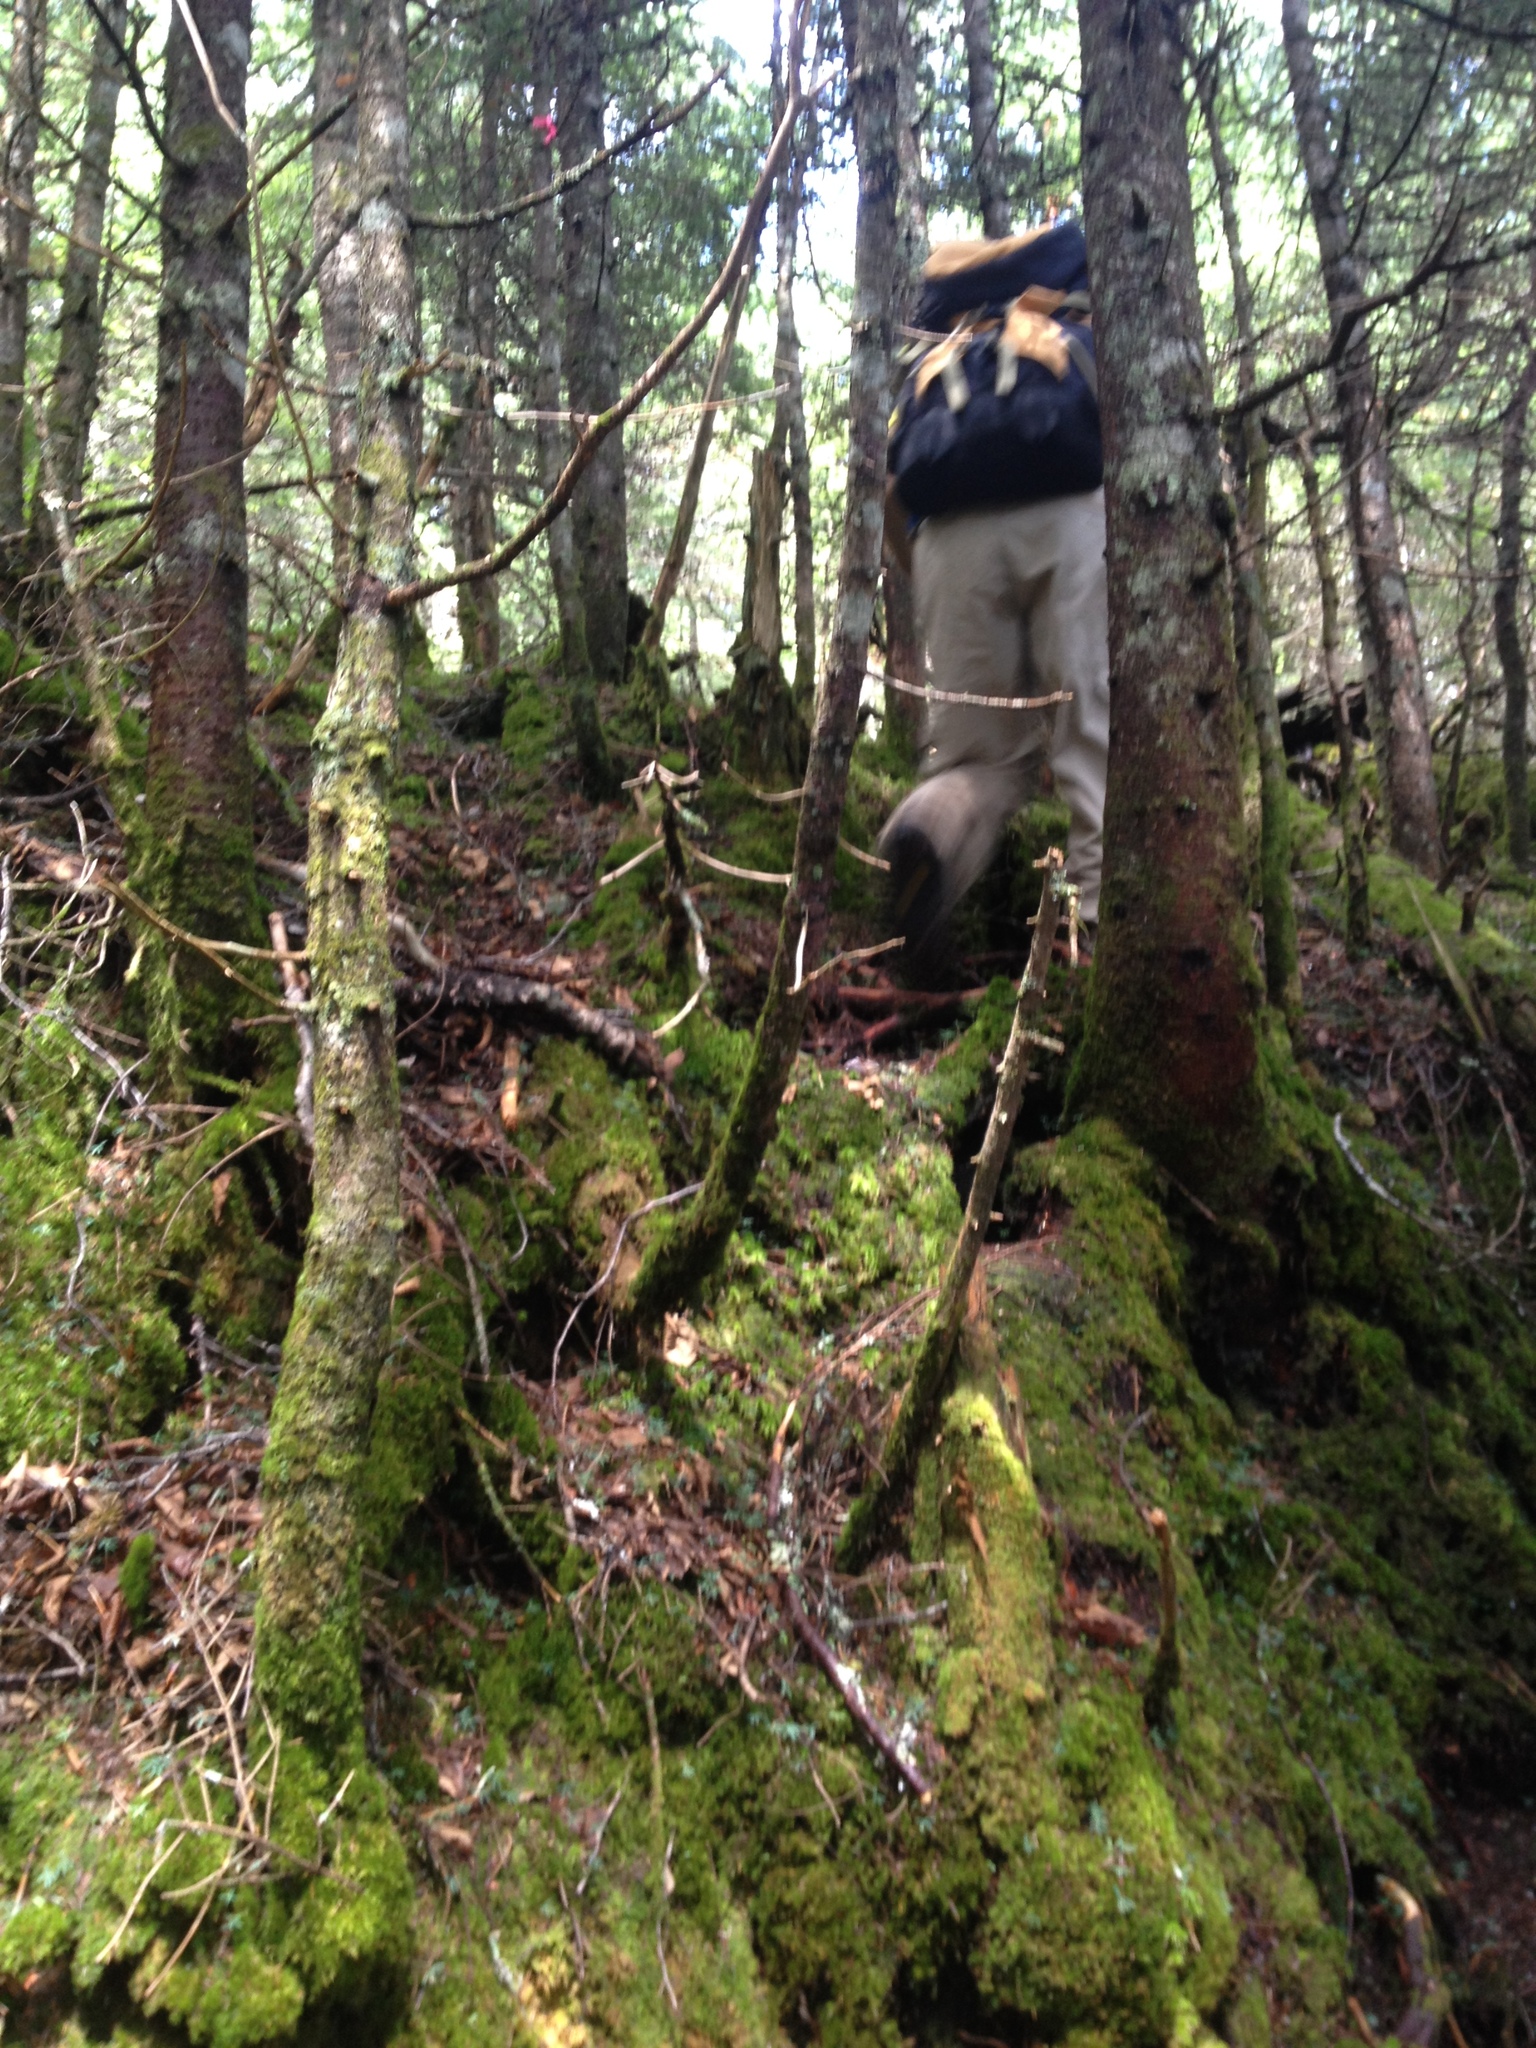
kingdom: Plantae
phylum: Tracheophyta
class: Liliopsida
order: Poales
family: Juncaceae
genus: Luzula
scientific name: Luzula parviflora
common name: Millet woodrush
